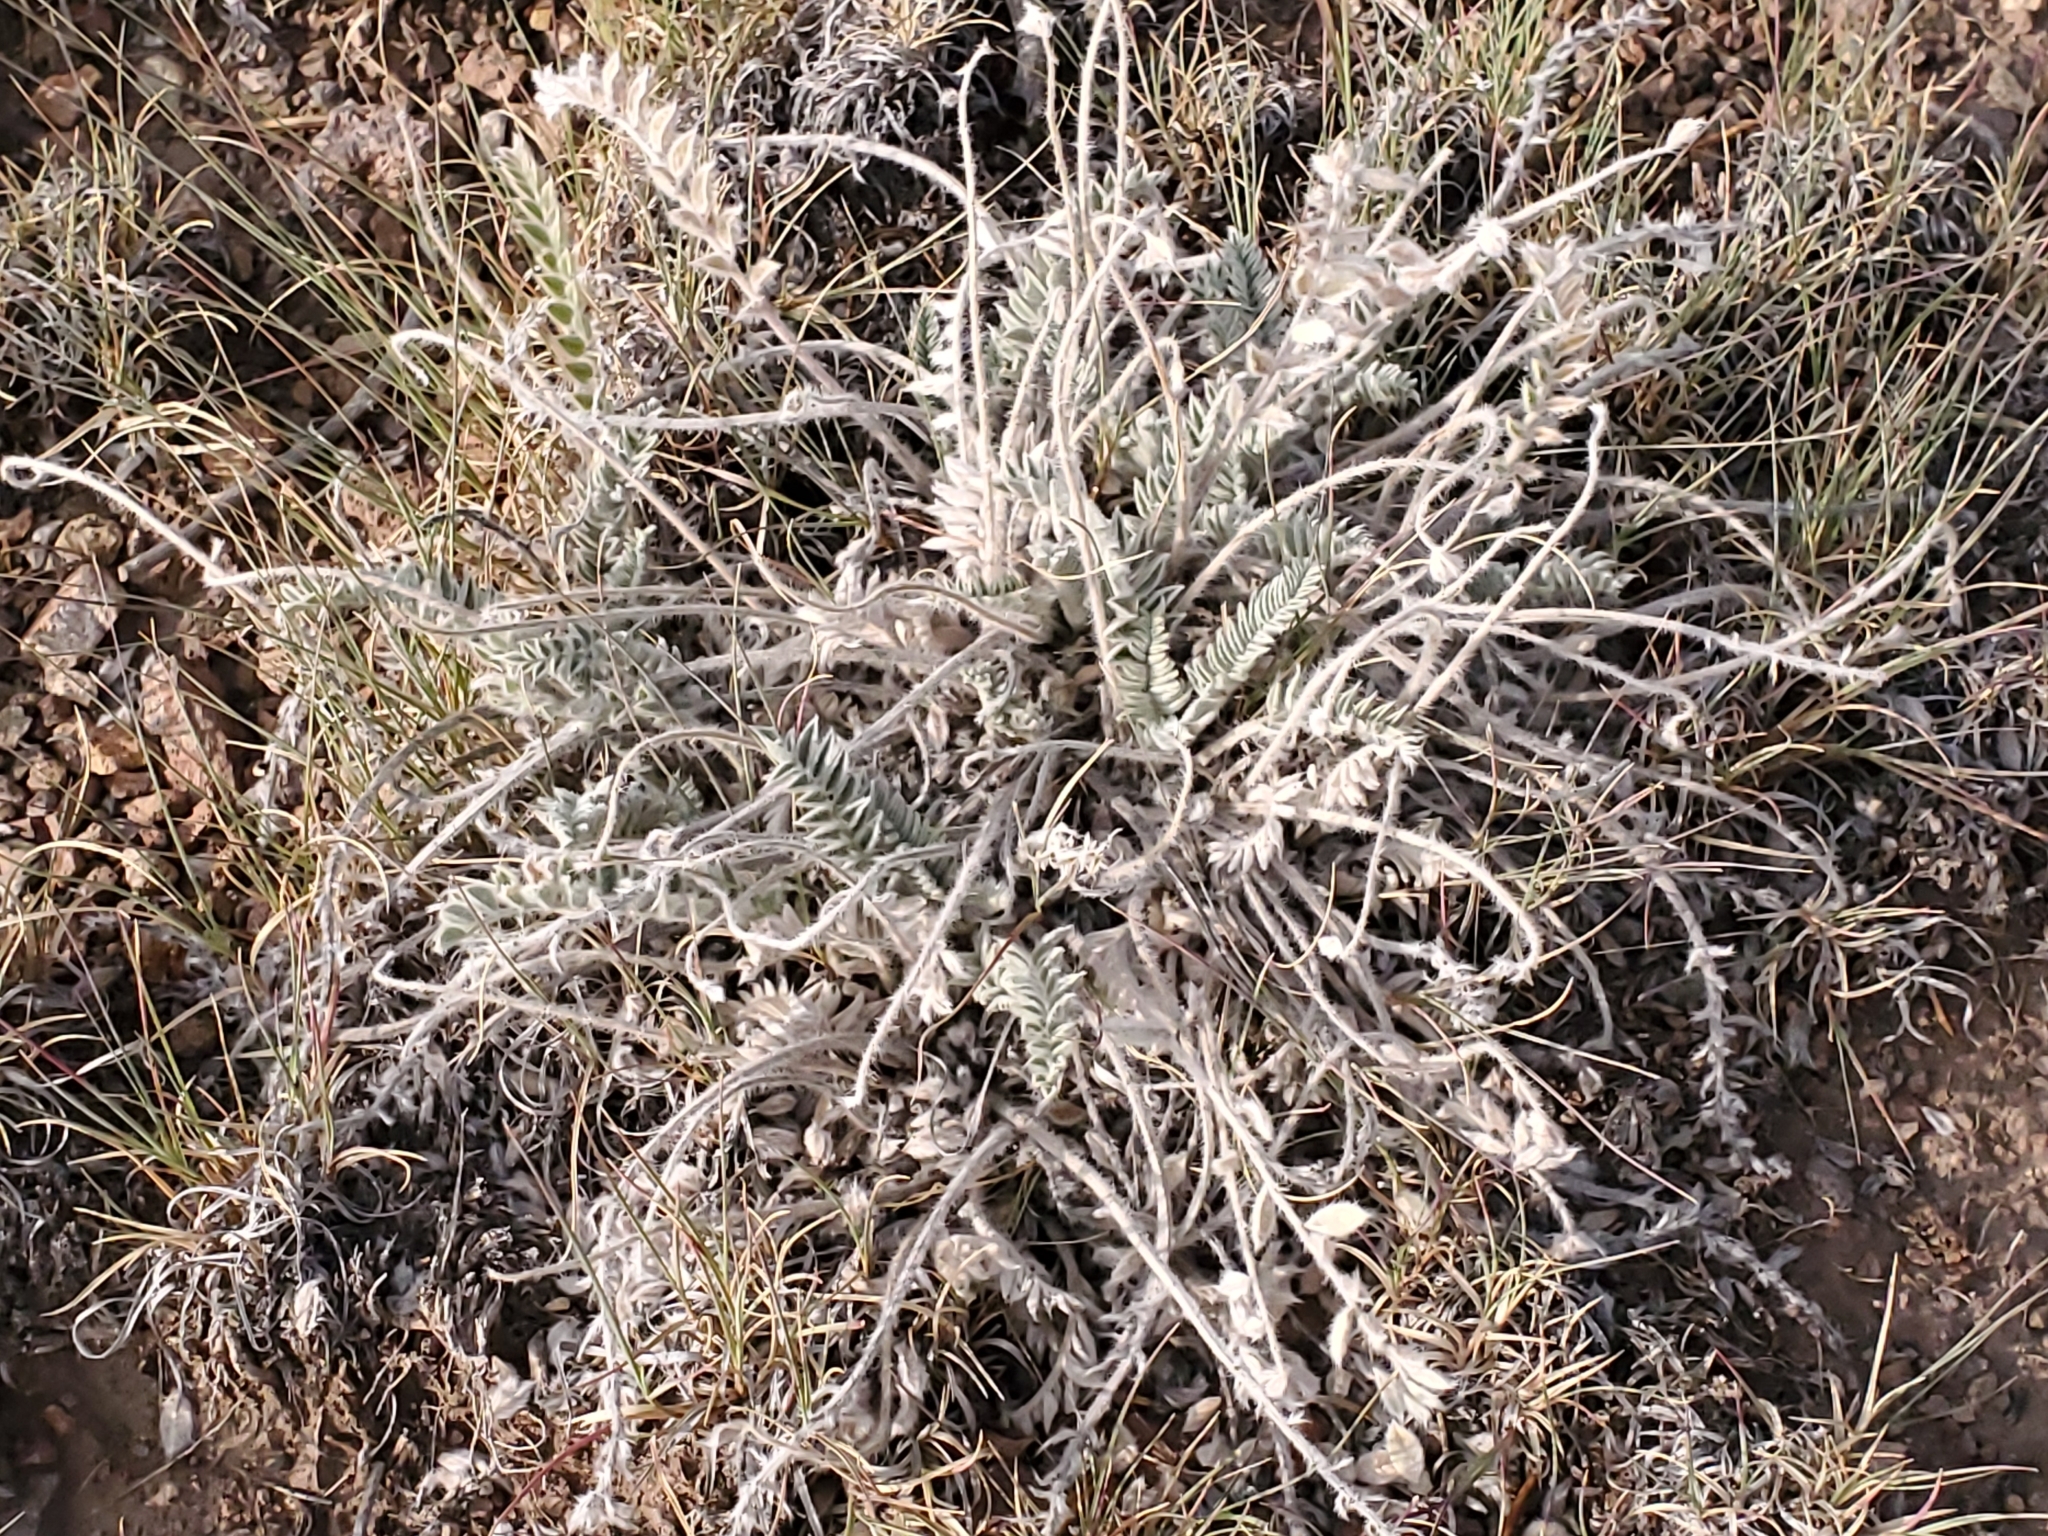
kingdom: Plantae
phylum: Tracheophyta
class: Magnoliopsida
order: Fabales
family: Fabaceae
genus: Astragalus
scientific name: Astragalus mollissimus
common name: Woolly locoweed
